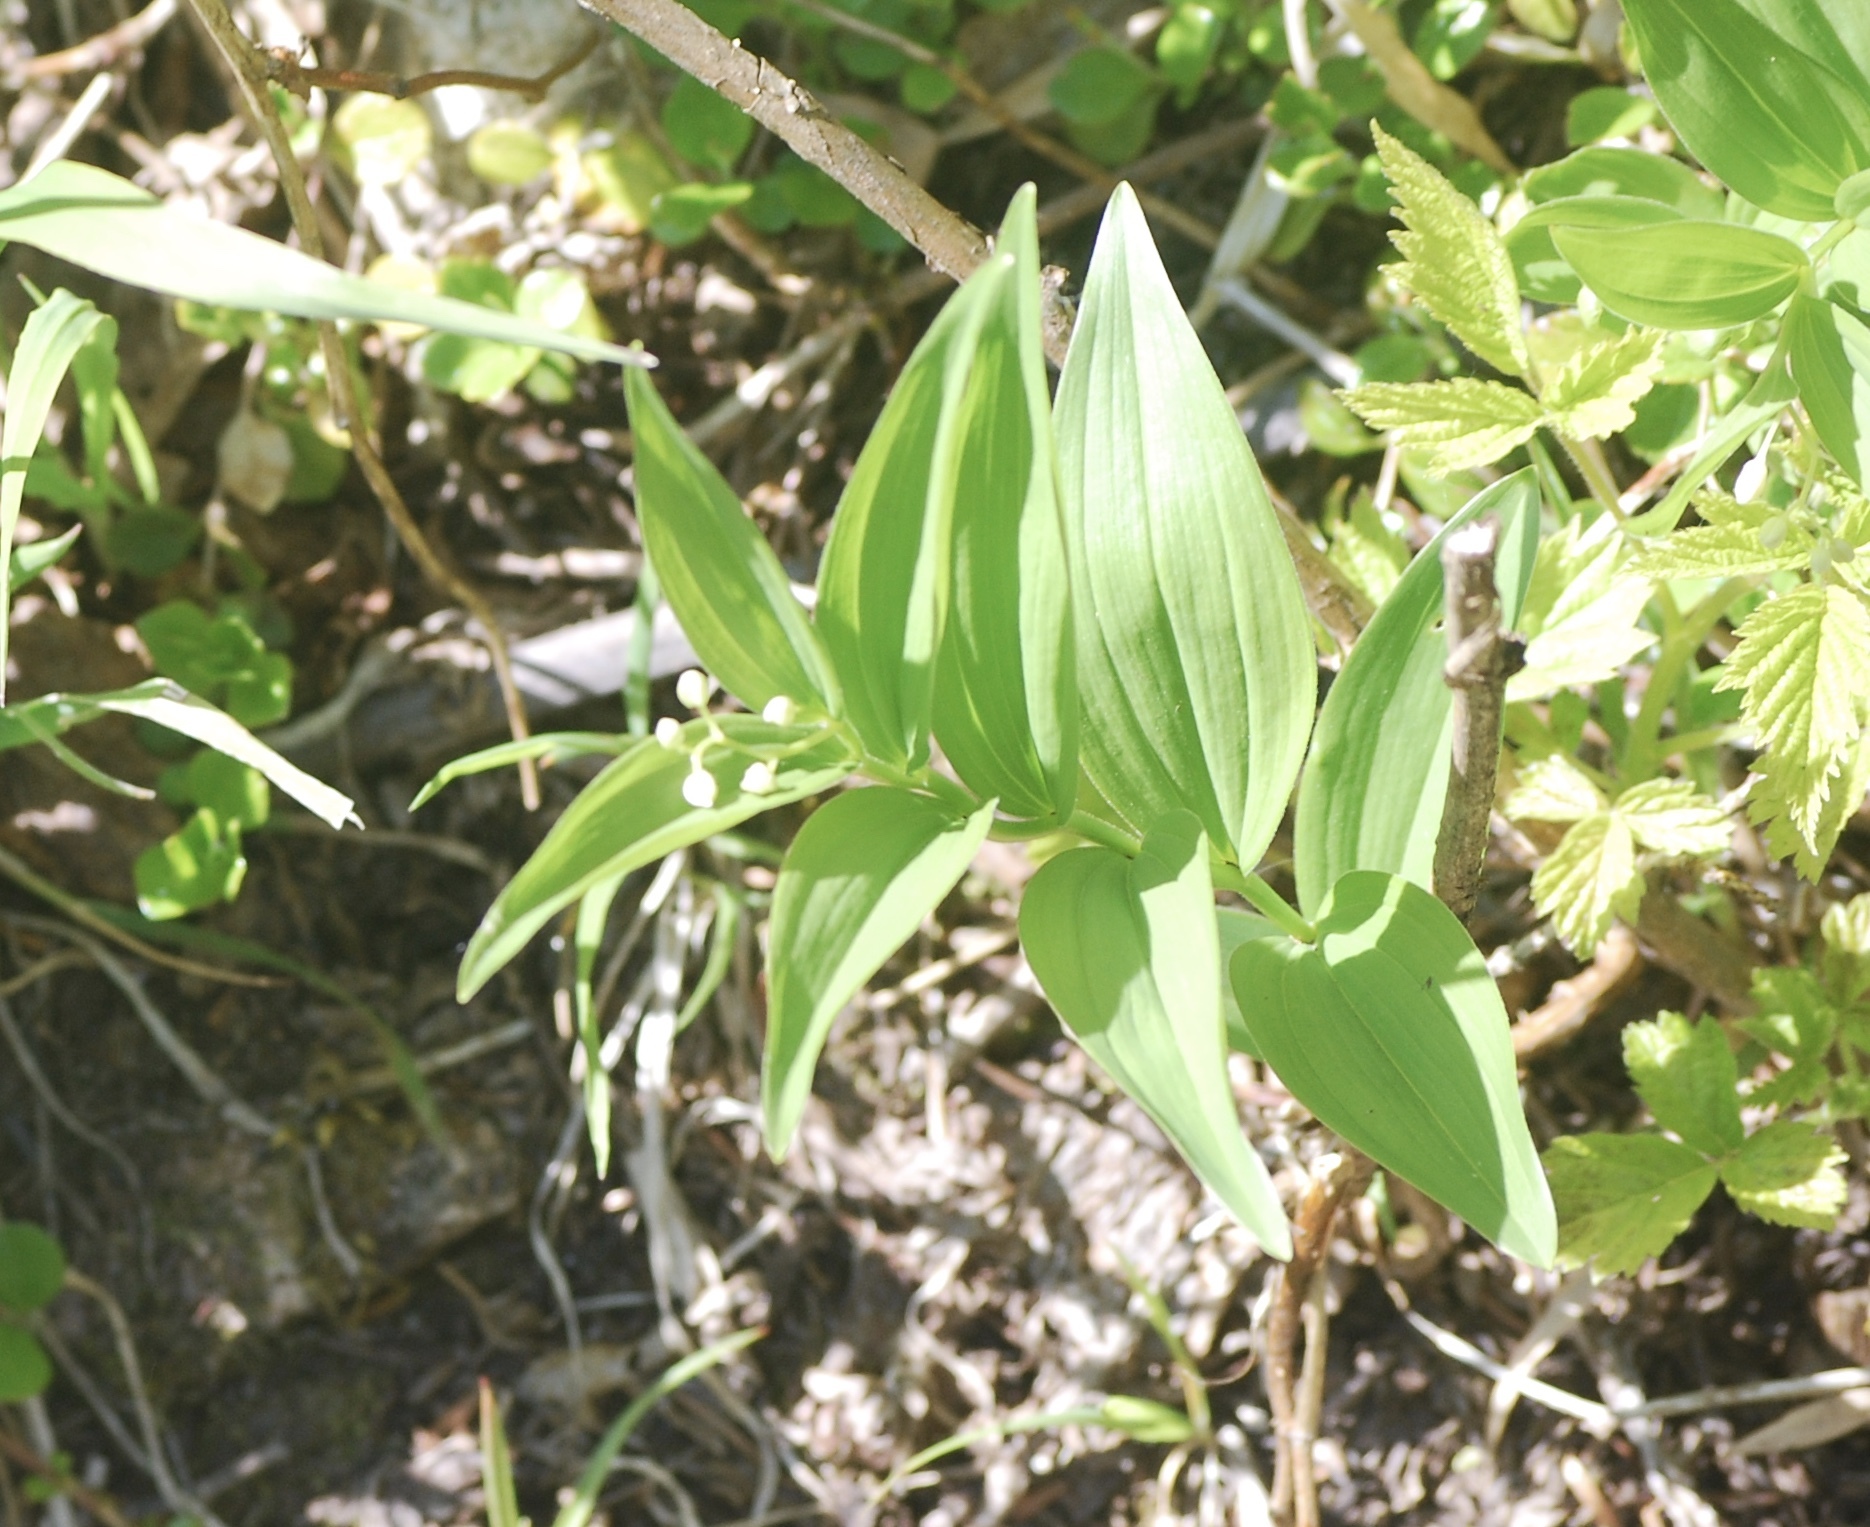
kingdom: Plantae
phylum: Tracheophyta
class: Liliopsida
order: Asparagales
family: Asparagaceae
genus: Maianthemum
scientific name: Maianthemum stellatum
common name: Little false solomon's seal
